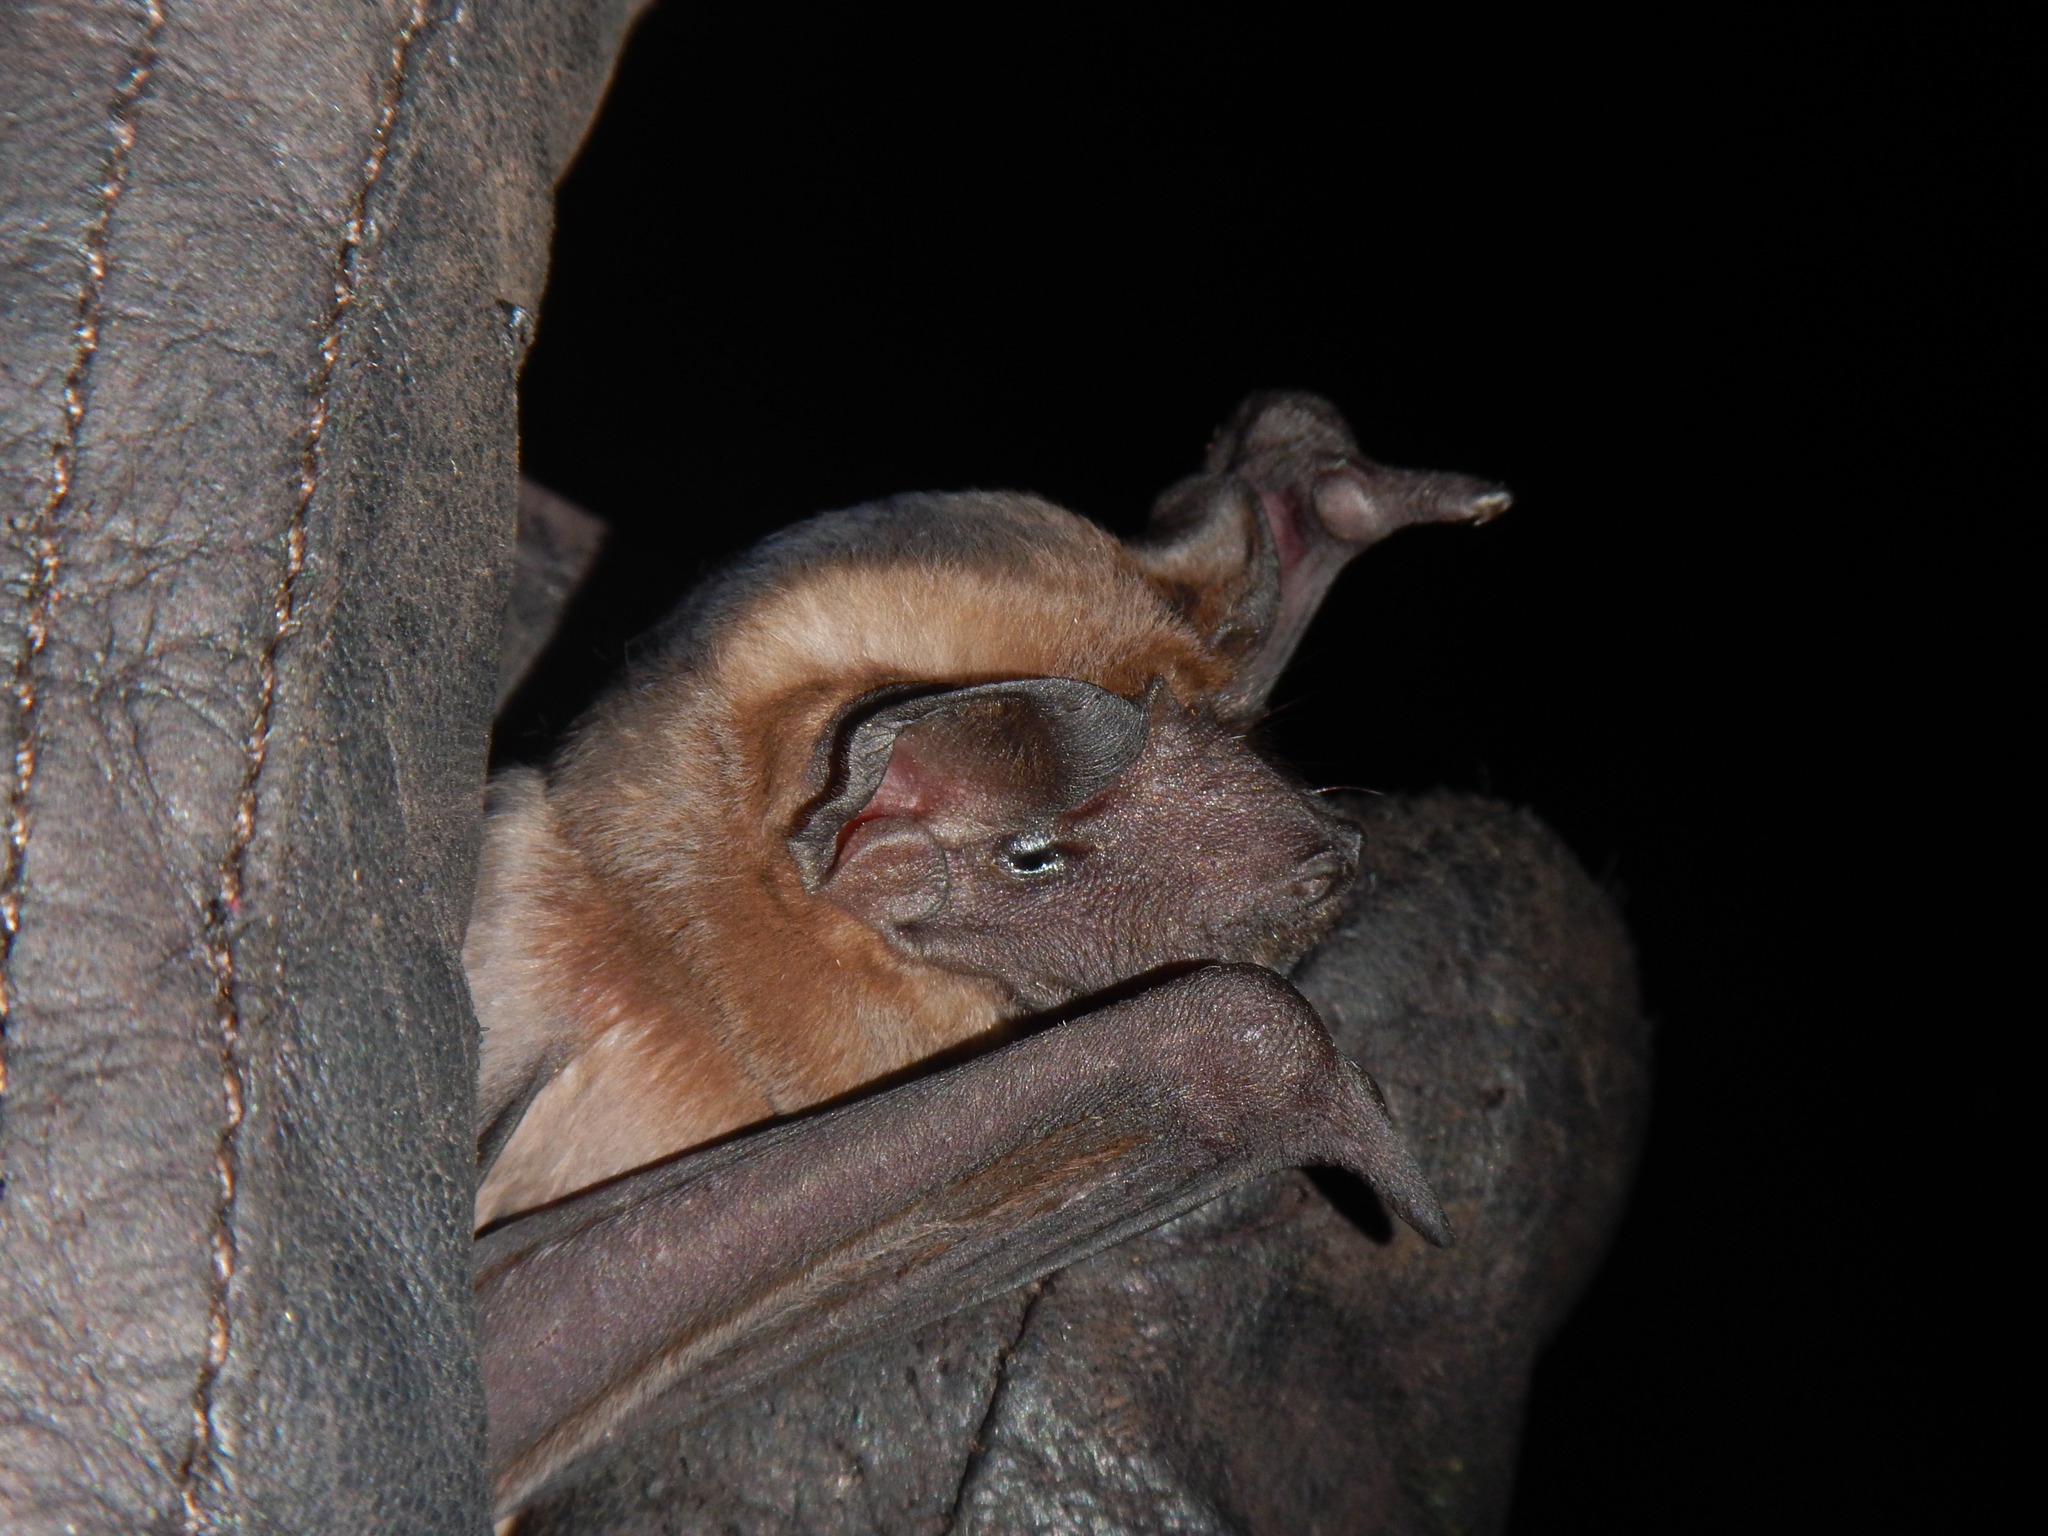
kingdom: Animalia
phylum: Chordata
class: Mammalia
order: Chiroptera
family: Molossidae
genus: Molossus
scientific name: Molossus molossus
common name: Pallas's mastiff bat
